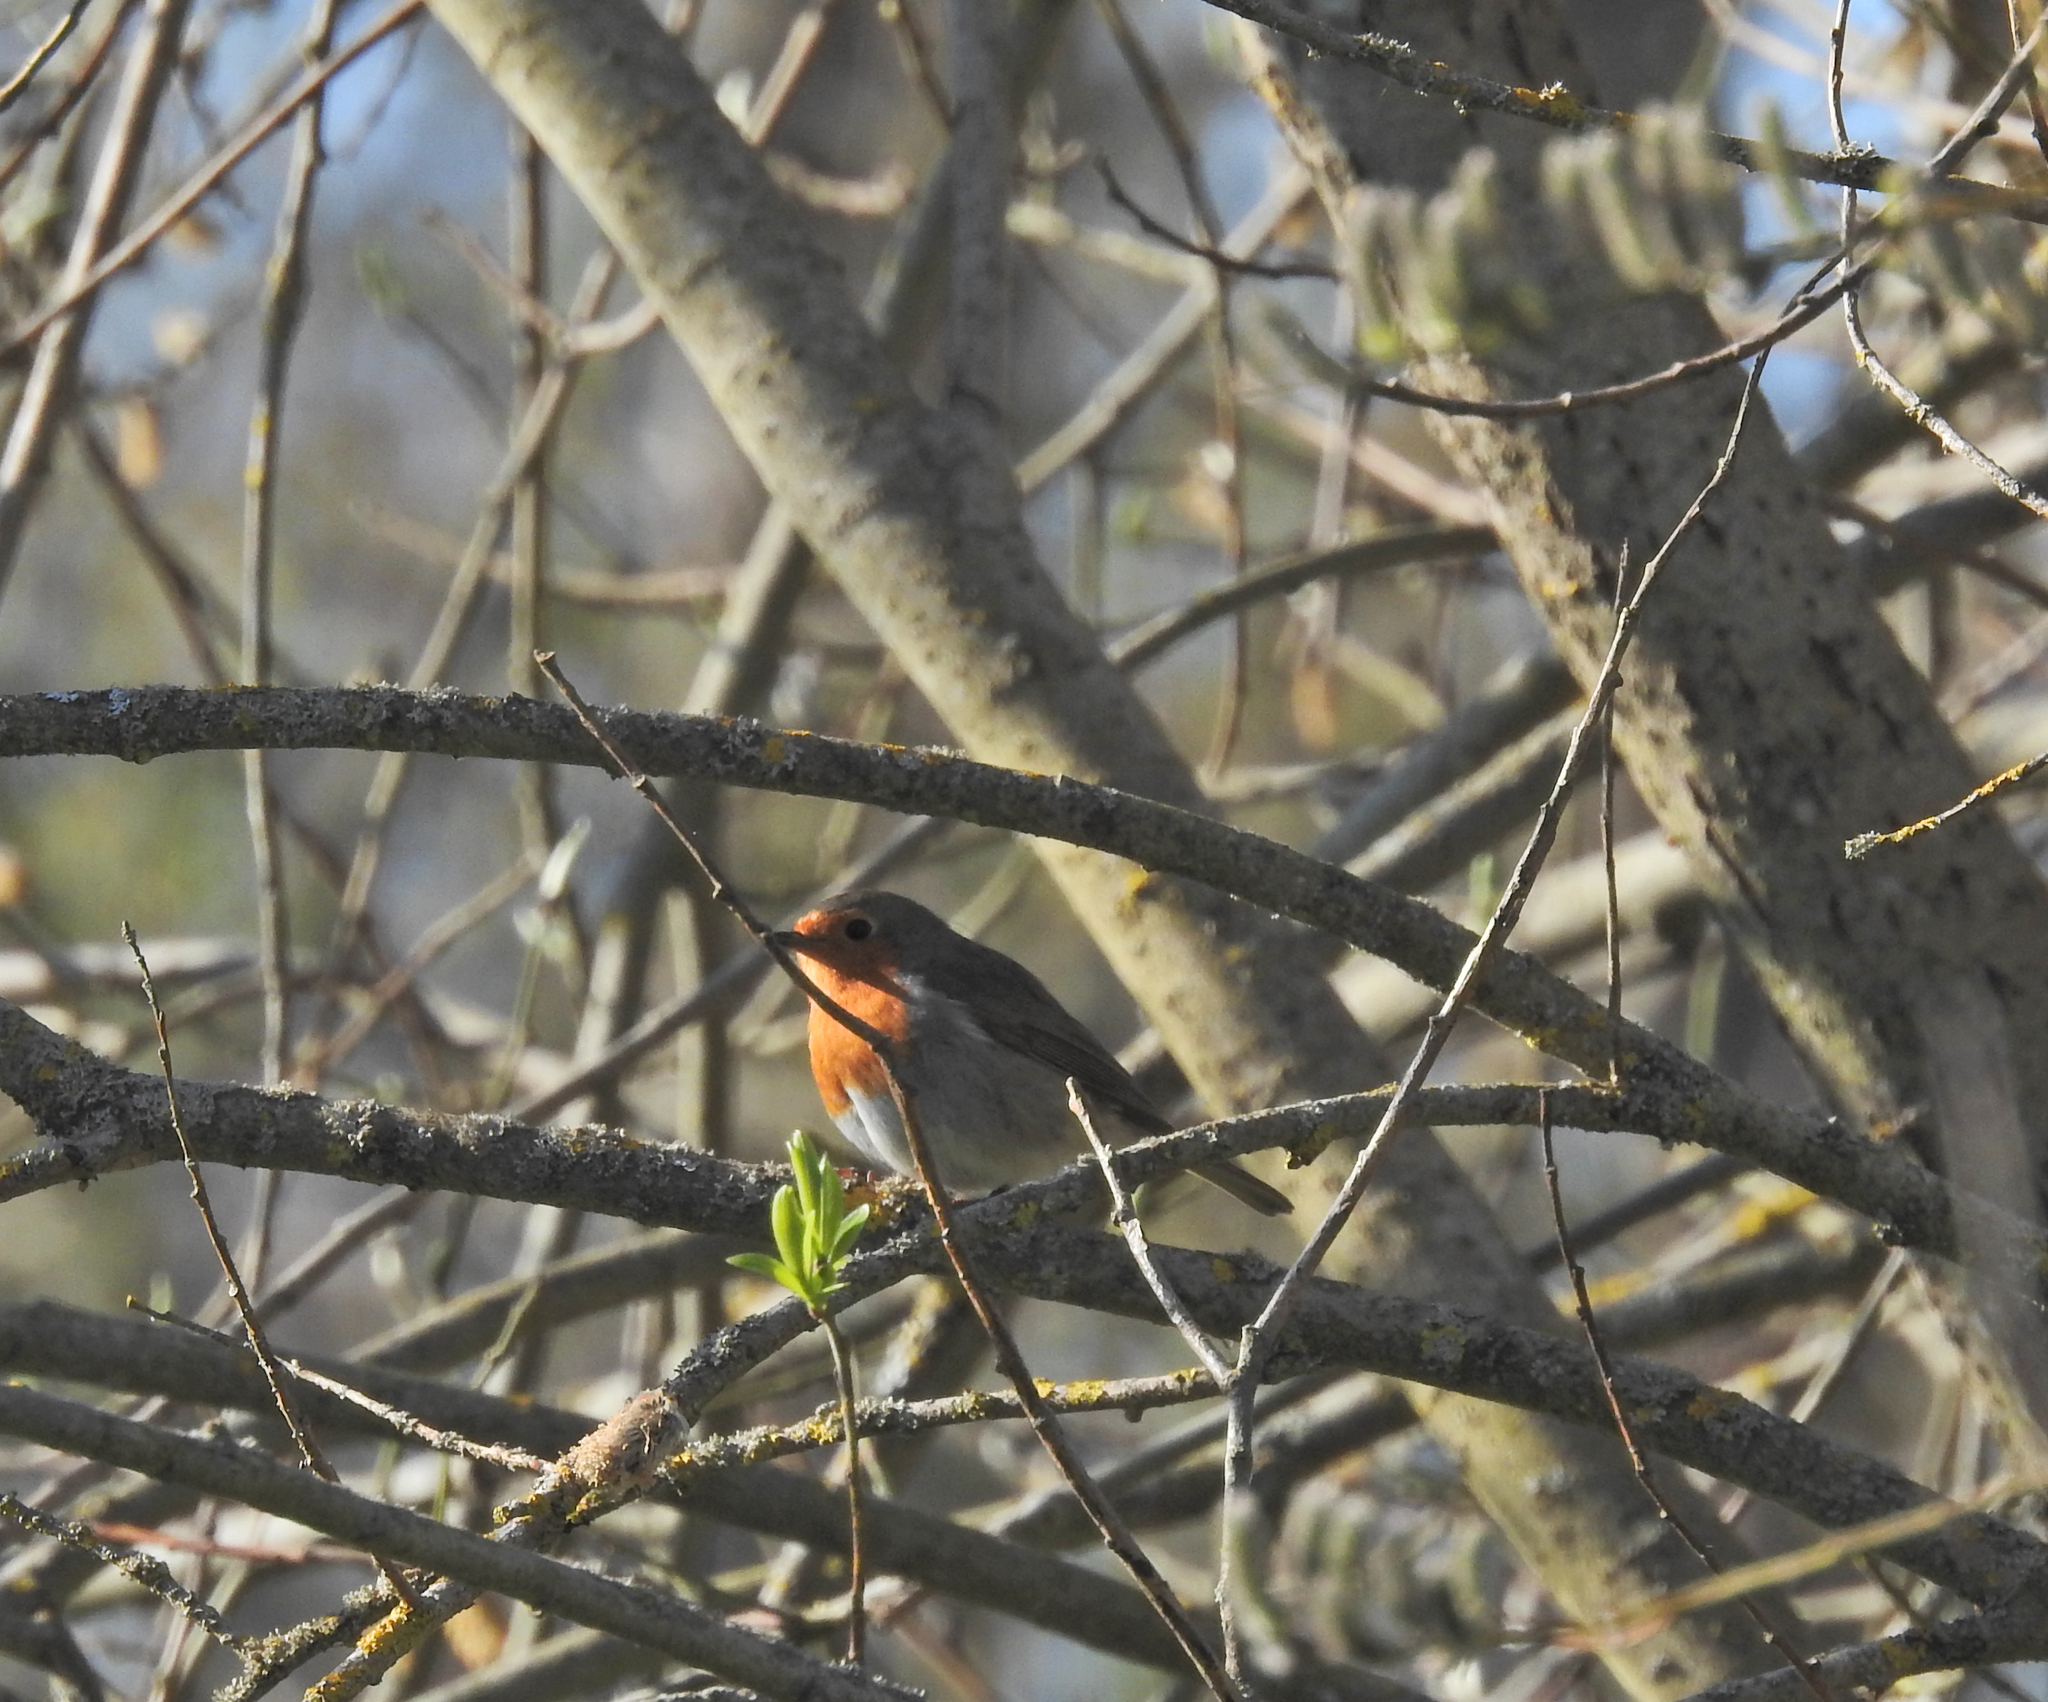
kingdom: Animalia
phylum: Chordata
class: Aves
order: Passeriformes
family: Muscicapidae
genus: Erithacus
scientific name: Erithacus rubecula
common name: European robin
